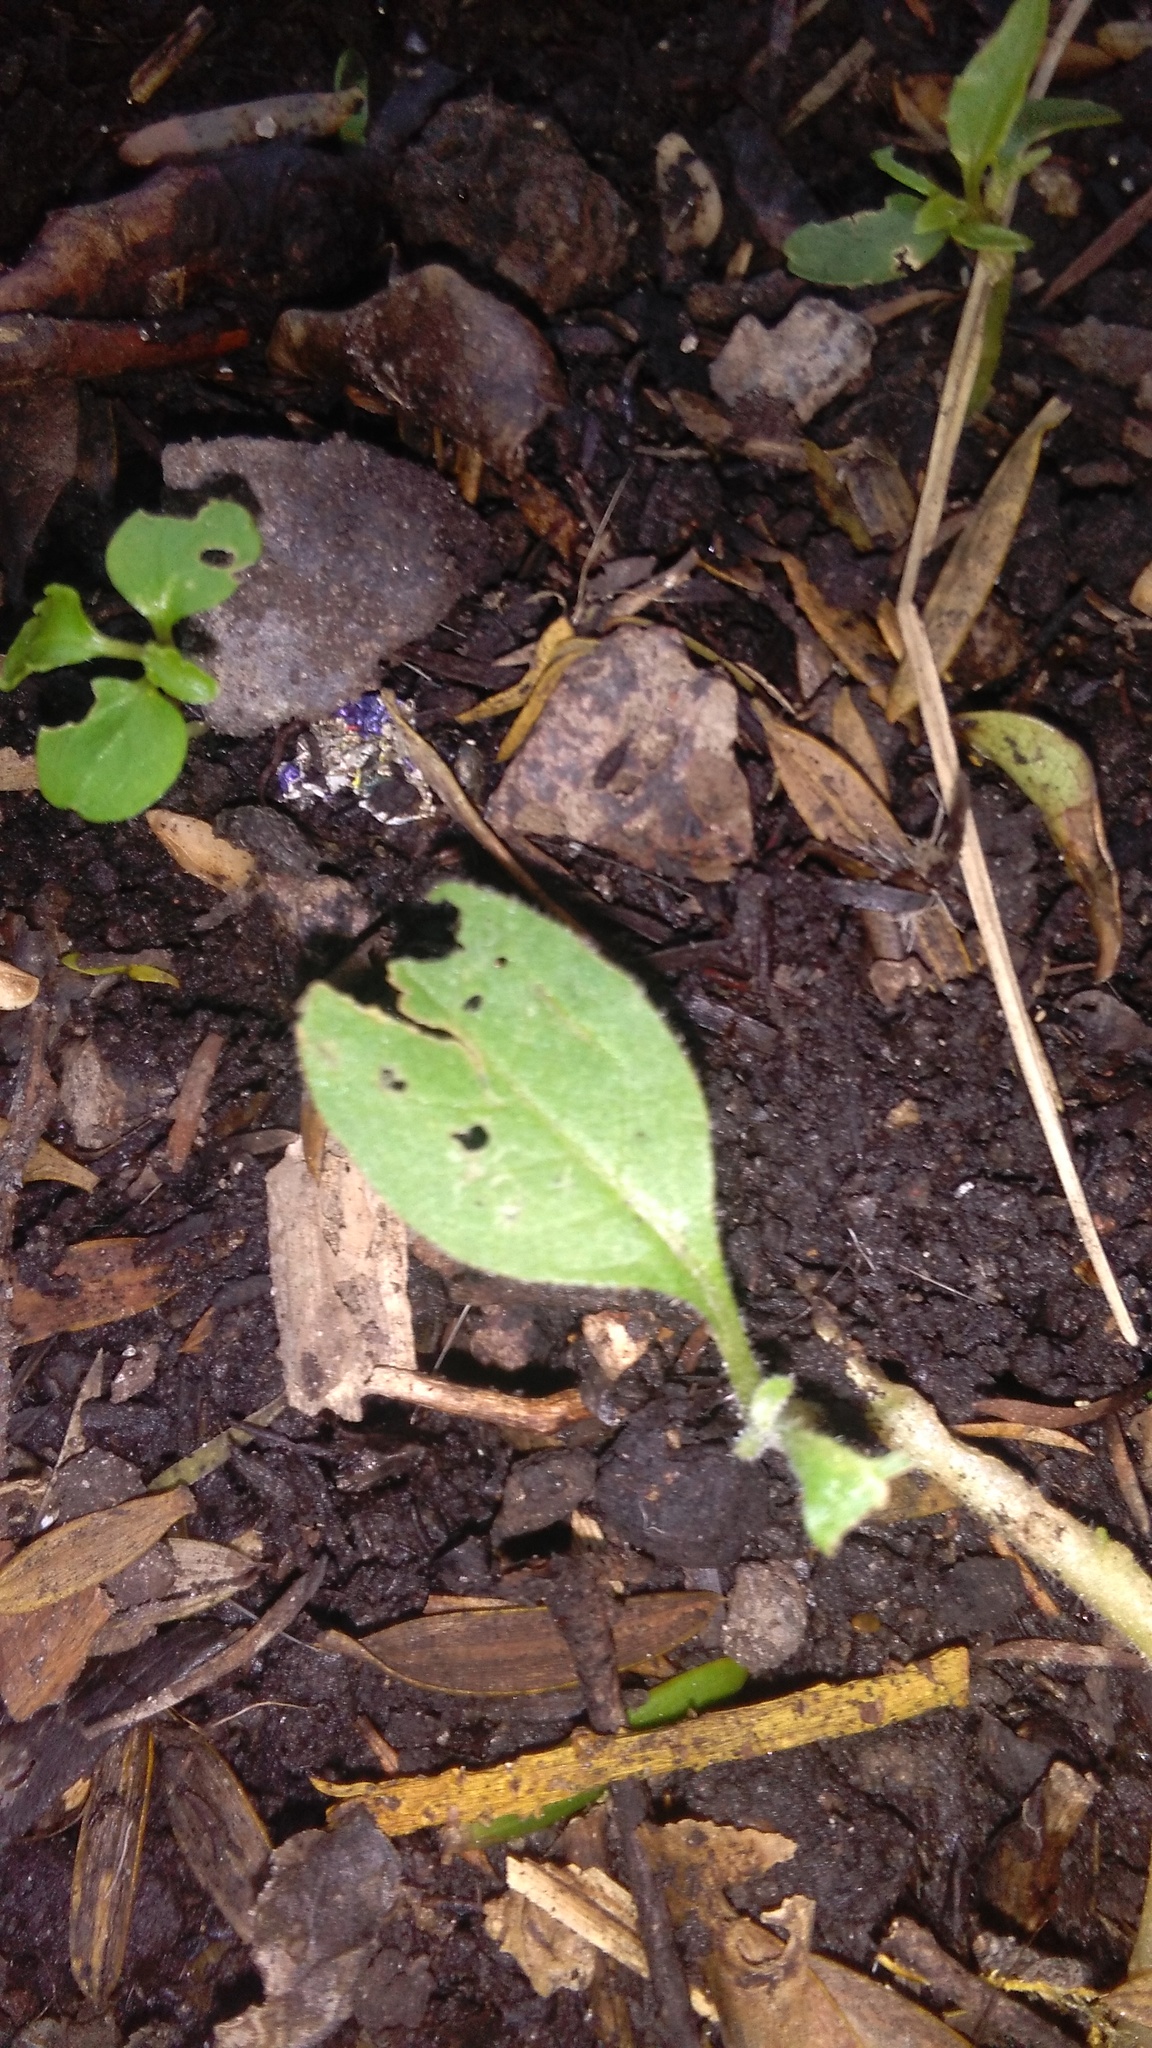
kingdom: Plantae
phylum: Tracheophyta
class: Magnoliopsida
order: Solanales
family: Solanaceae
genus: Solanum
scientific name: Solanum mauritianum
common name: Earleaf nightshade
